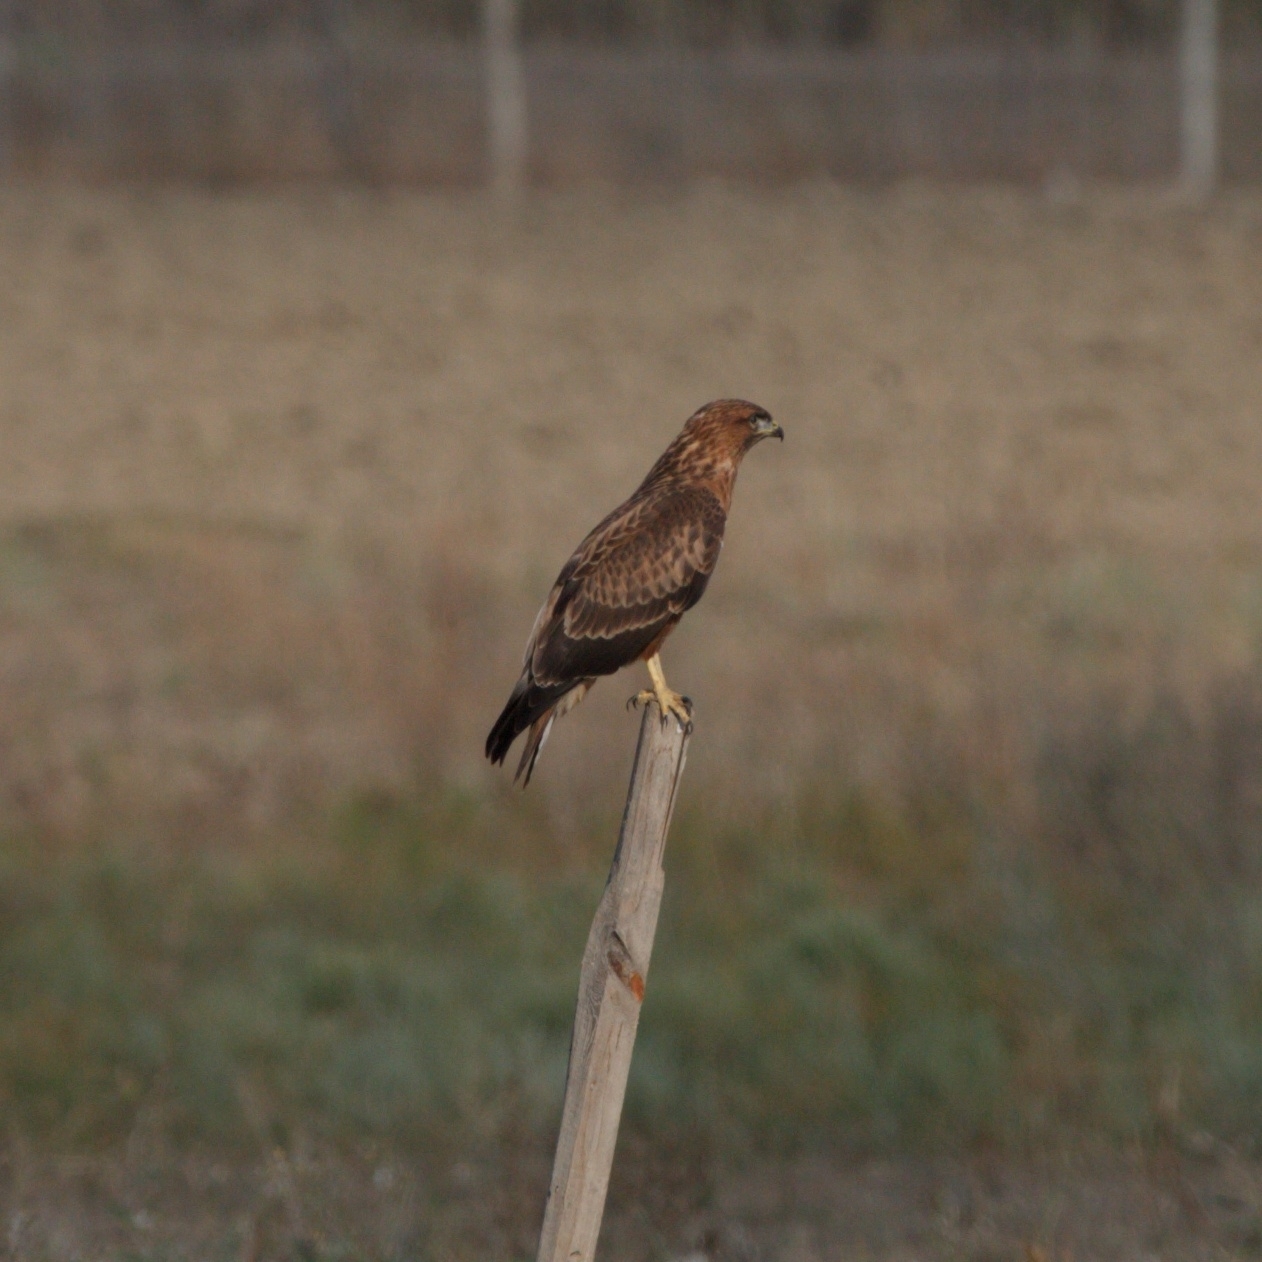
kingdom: Animalia
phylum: Chordata
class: Aves
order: Accipitriformes
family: Accipitridae
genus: Buteo
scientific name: Buteo buteo
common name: Common buzzard
